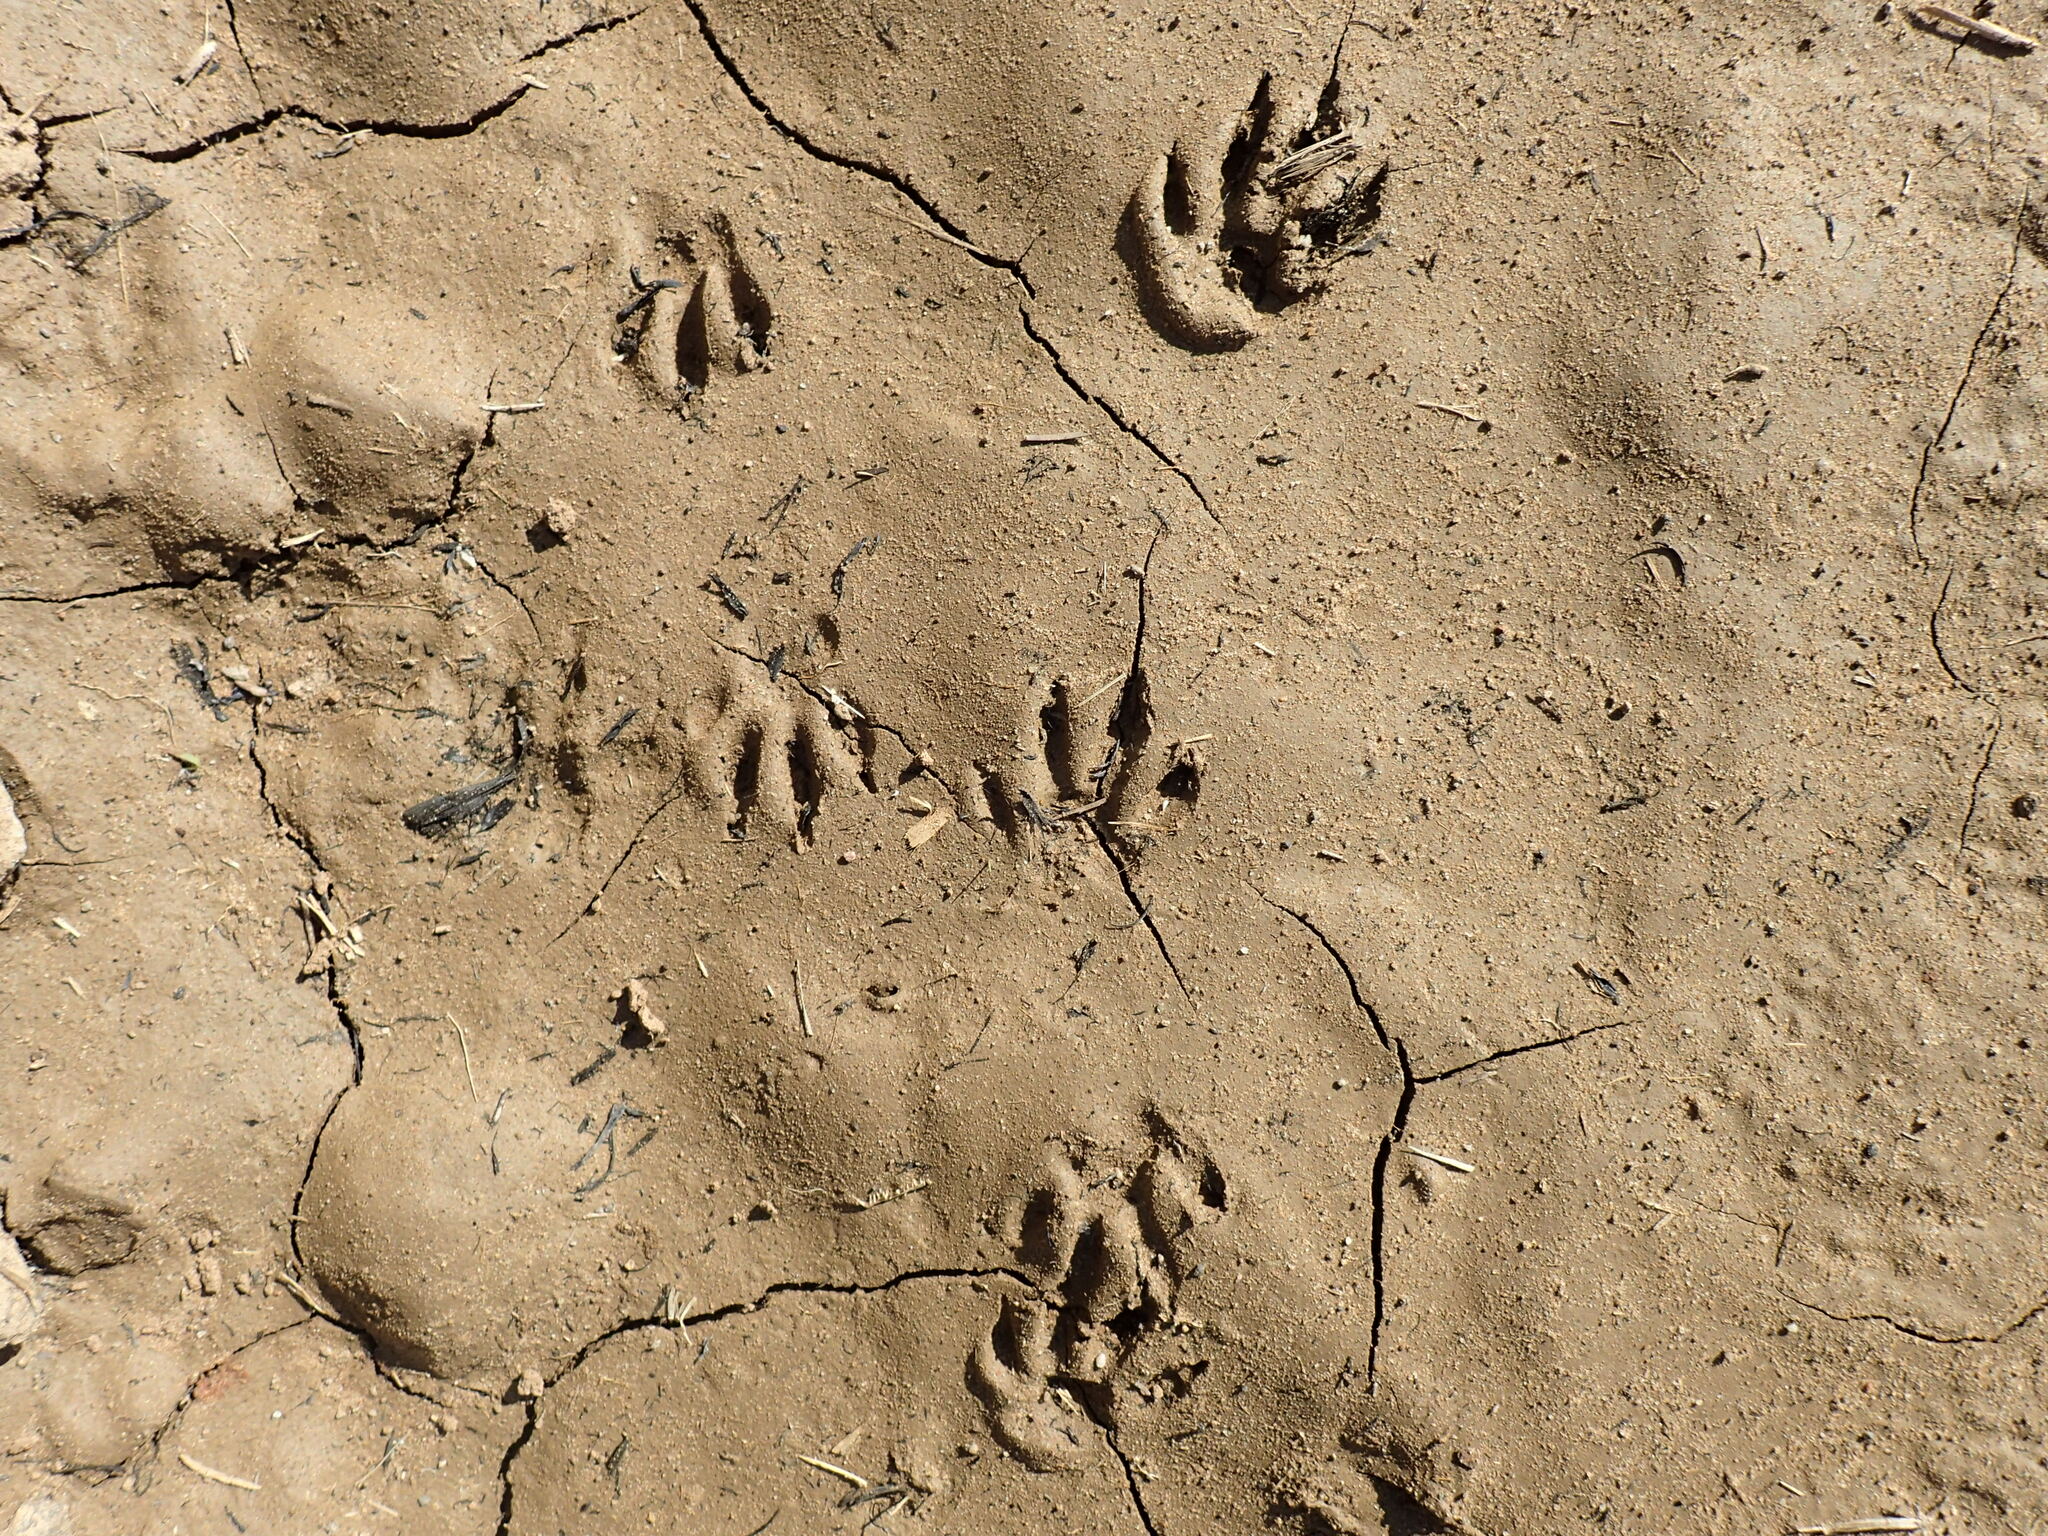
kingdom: Animalia
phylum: Chordata
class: Mammalia
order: Carnivora
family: Herpestidae
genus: Atilax
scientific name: Atilax paludinosus
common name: Marsh mongoose
